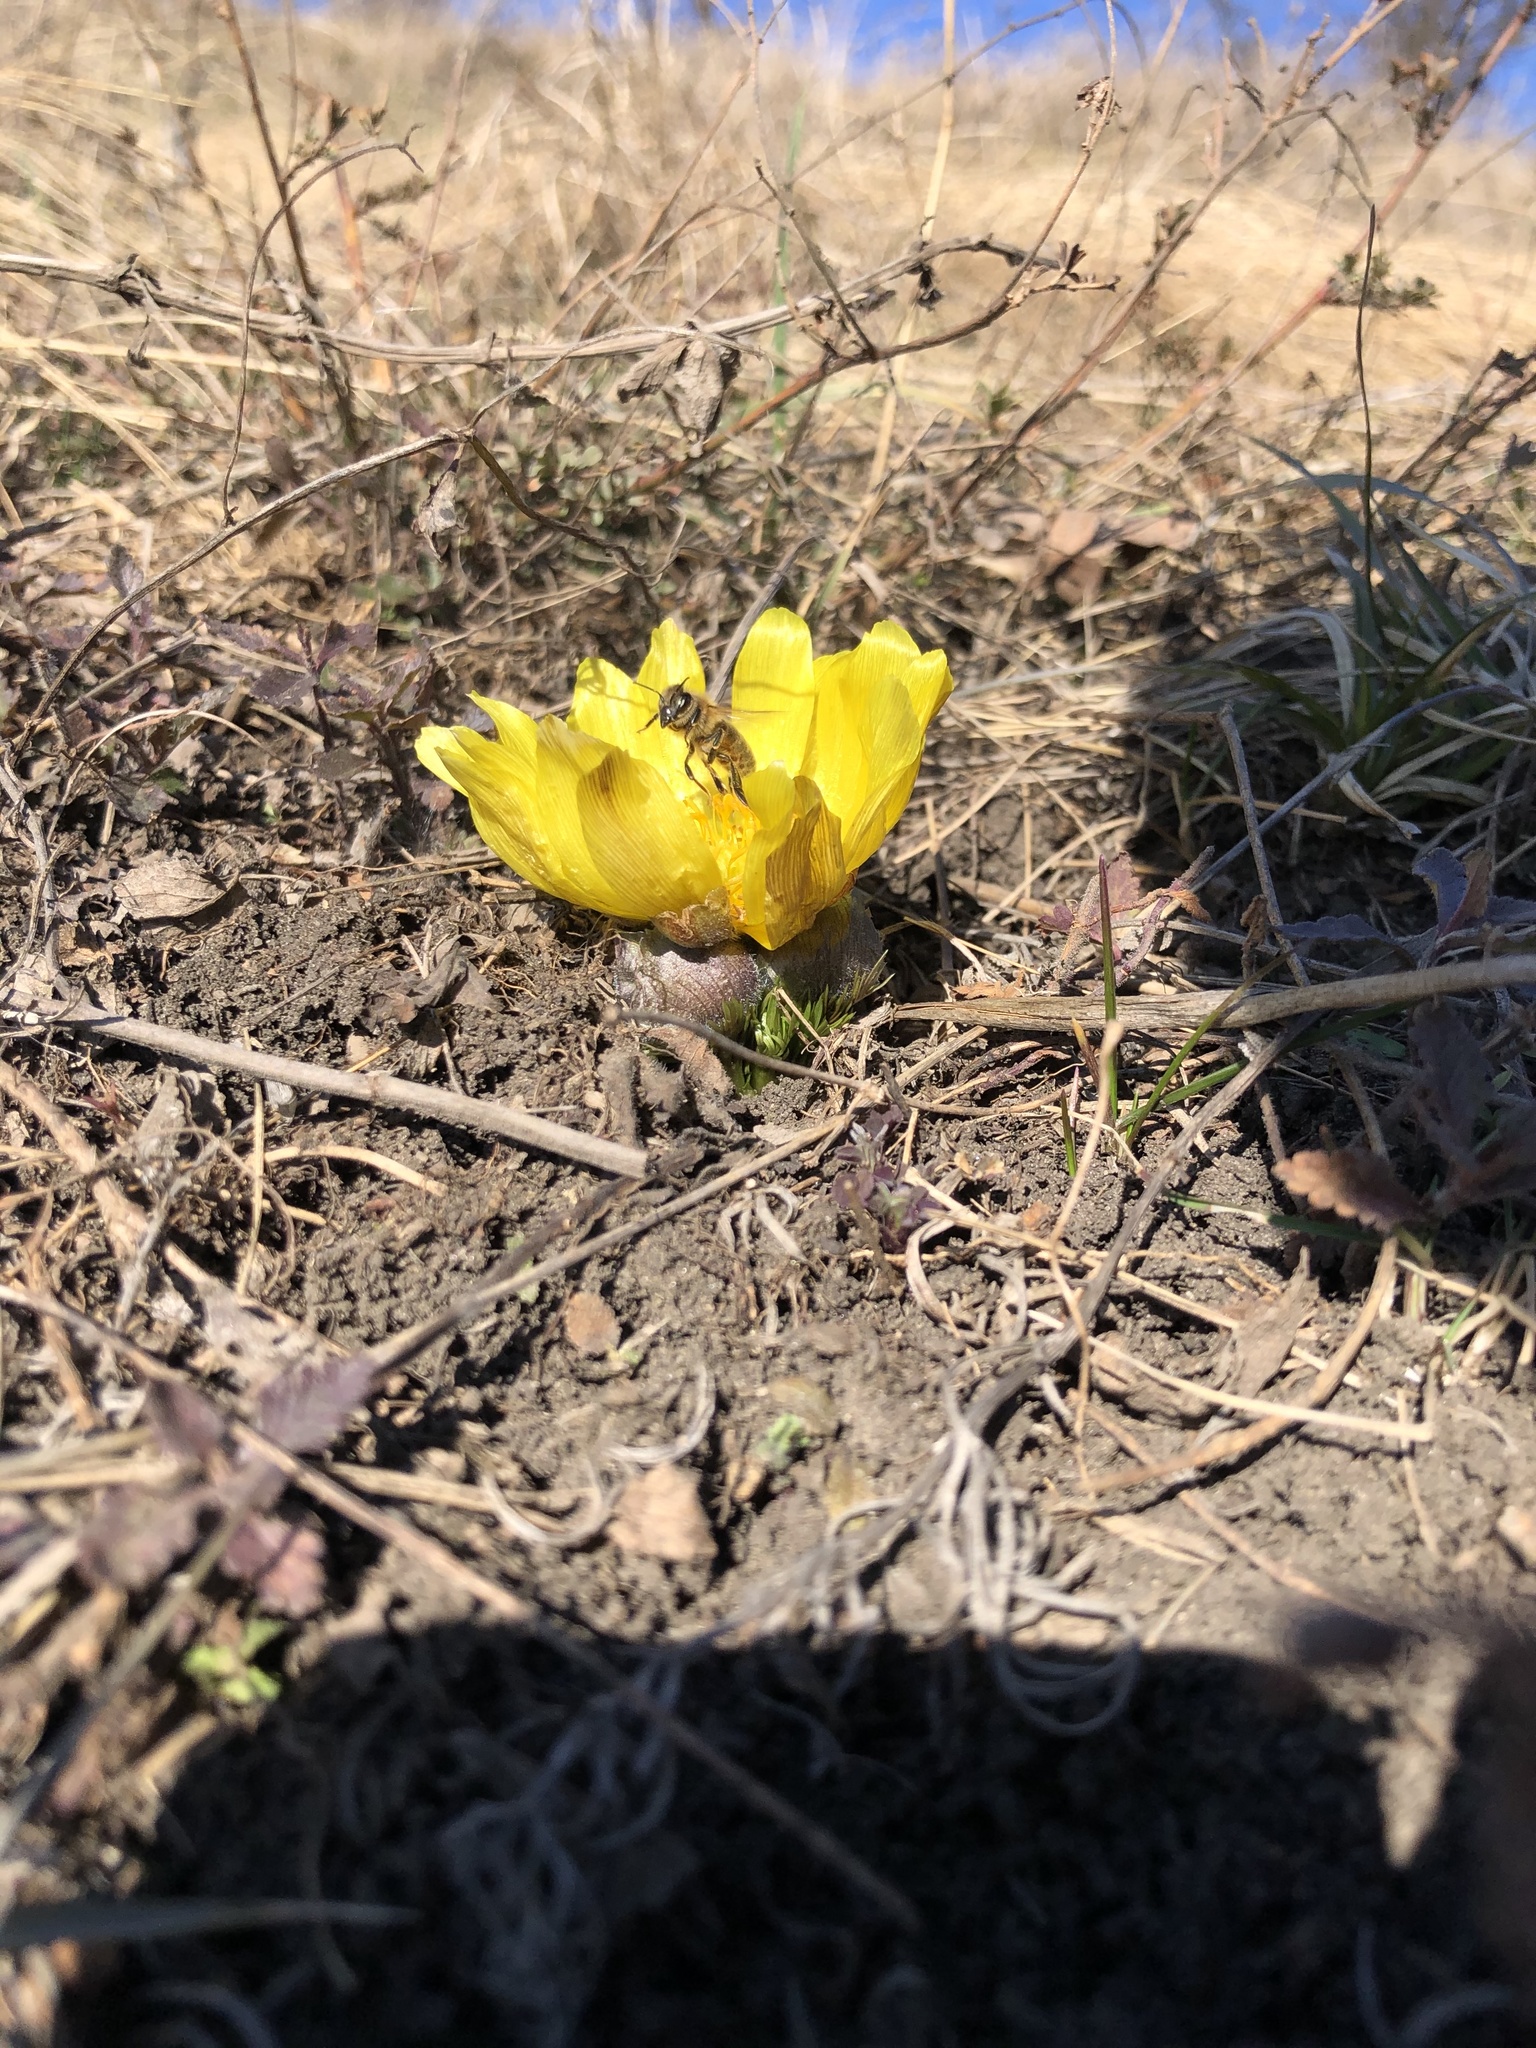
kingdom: Plantae
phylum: Tracheophyta
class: Magnoliopsida
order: Ranunculales
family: Ranunculaceae
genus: Adonis
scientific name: Adonis vernalis
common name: Yellow pheasants-eye
